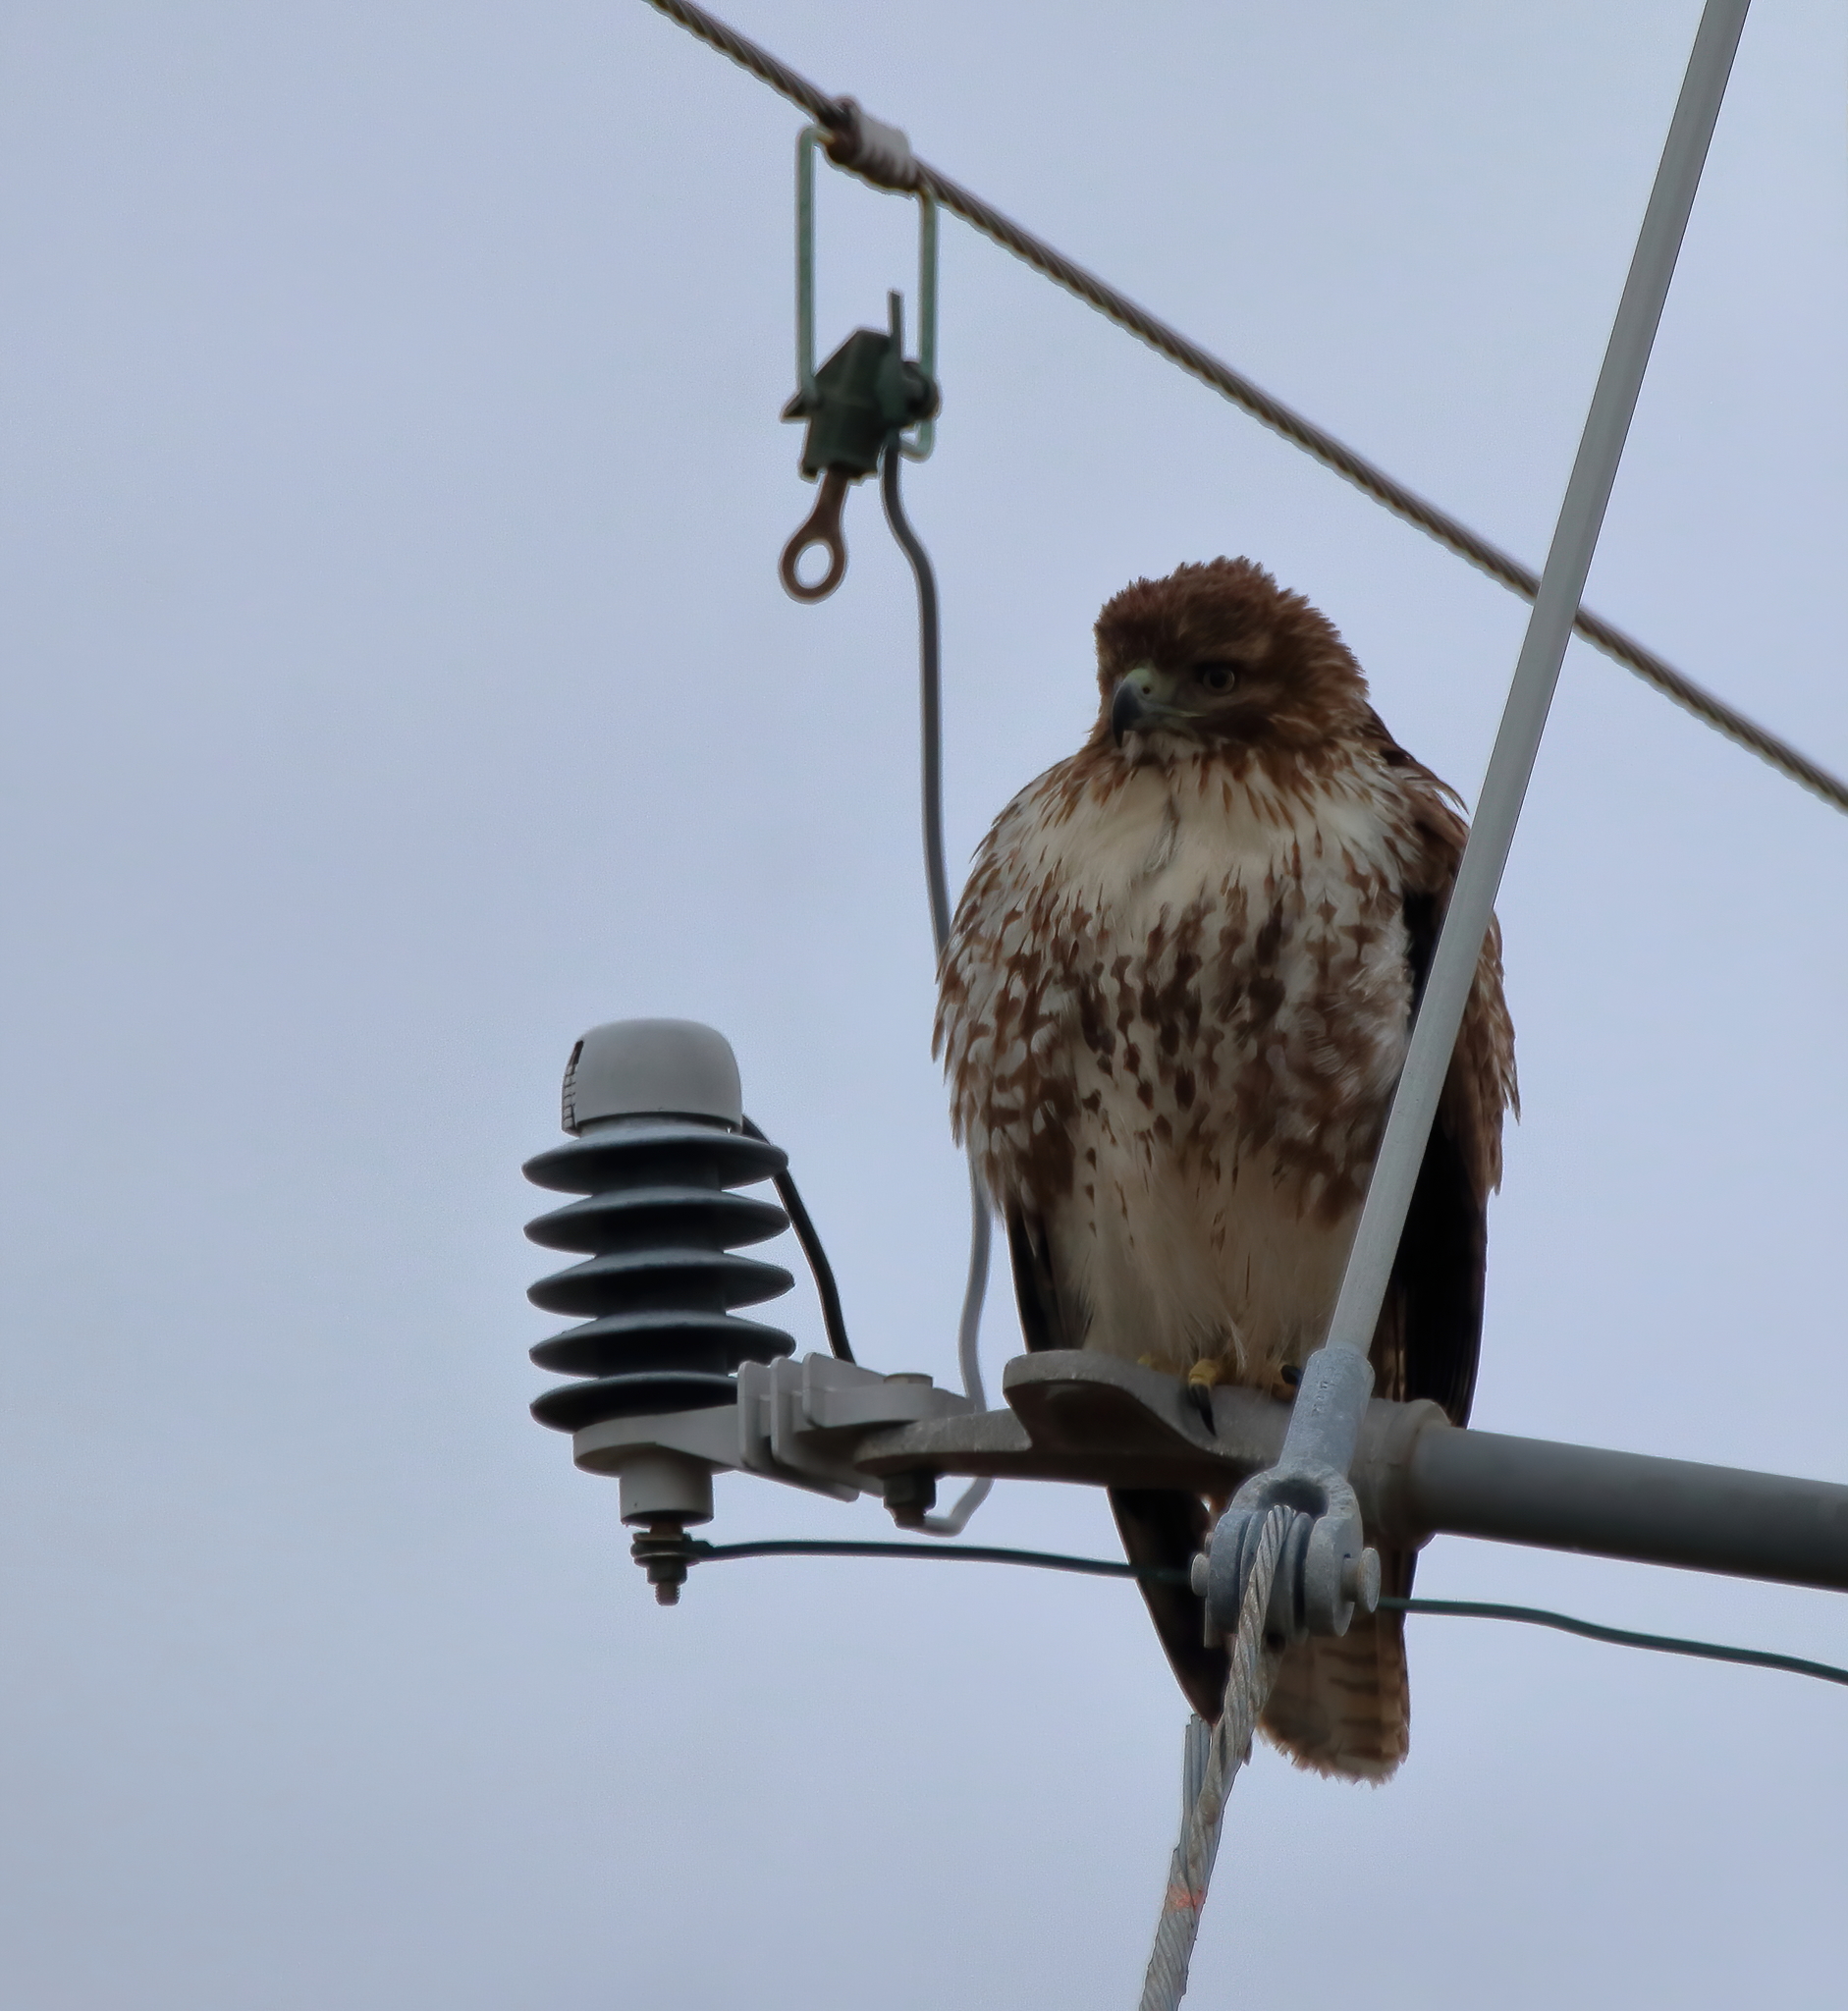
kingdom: Animalia
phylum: Chordata
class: Aves
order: Accipitriformes
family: Accipitridae
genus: Buteo
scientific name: Buteo jamaicensis
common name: Red-tailed hawk
